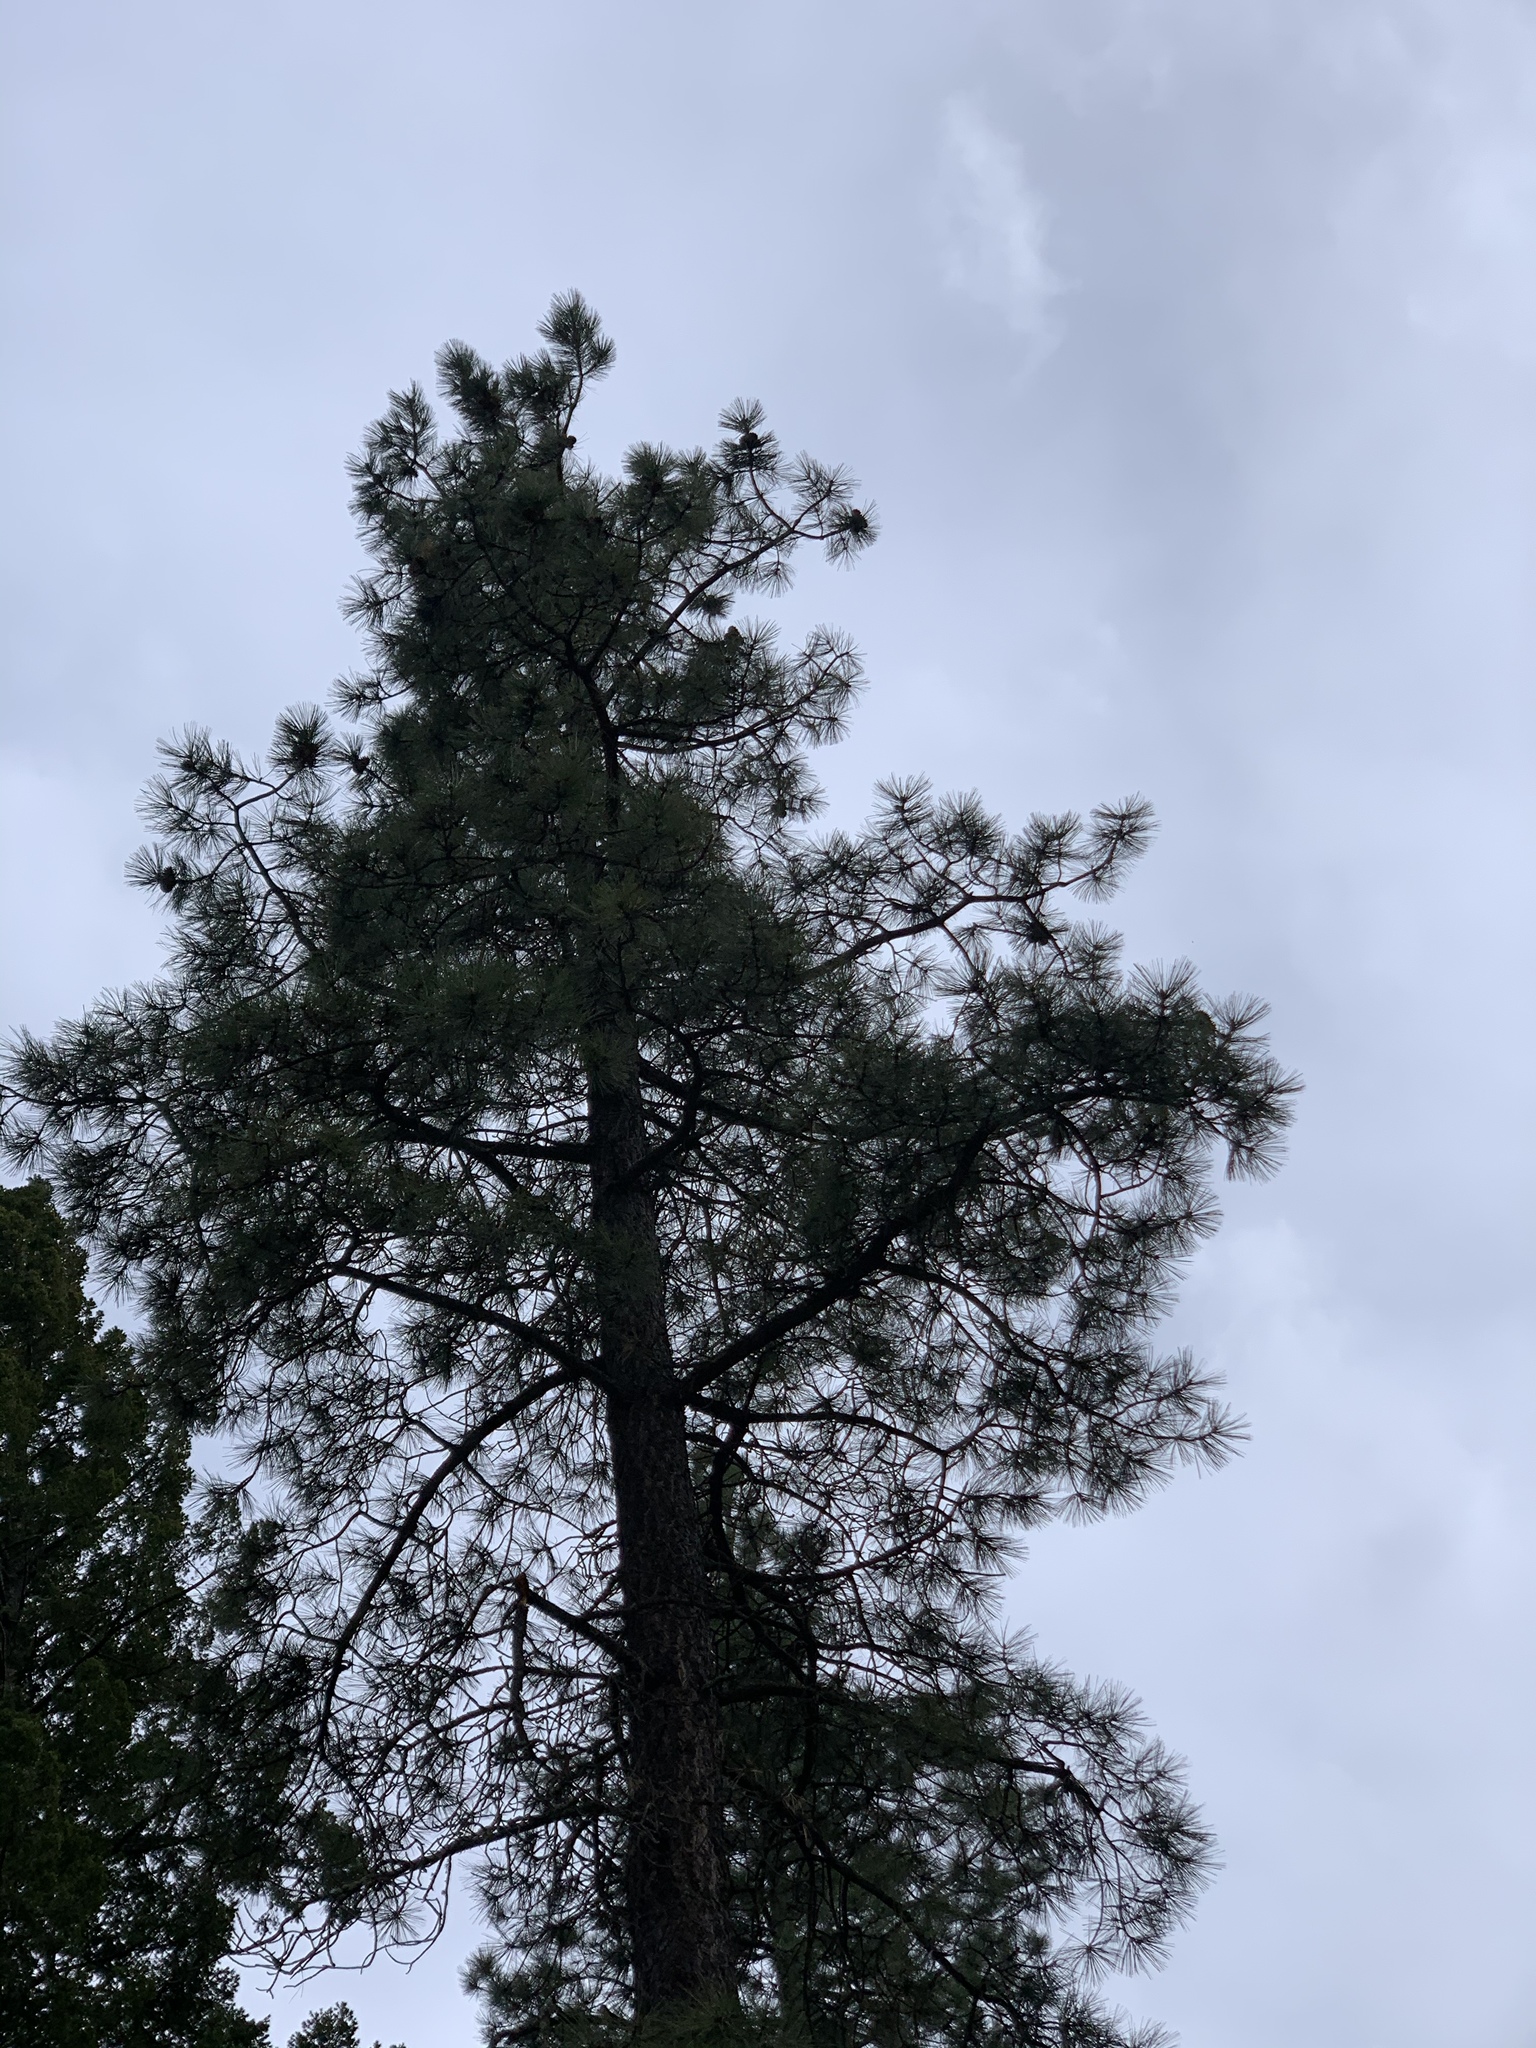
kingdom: Plantae
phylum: Tracheophyta
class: Pinopsida
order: Pinales
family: Pinaceae
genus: Pinus
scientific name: Pinus ponderosa
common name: Western yellow-pine
